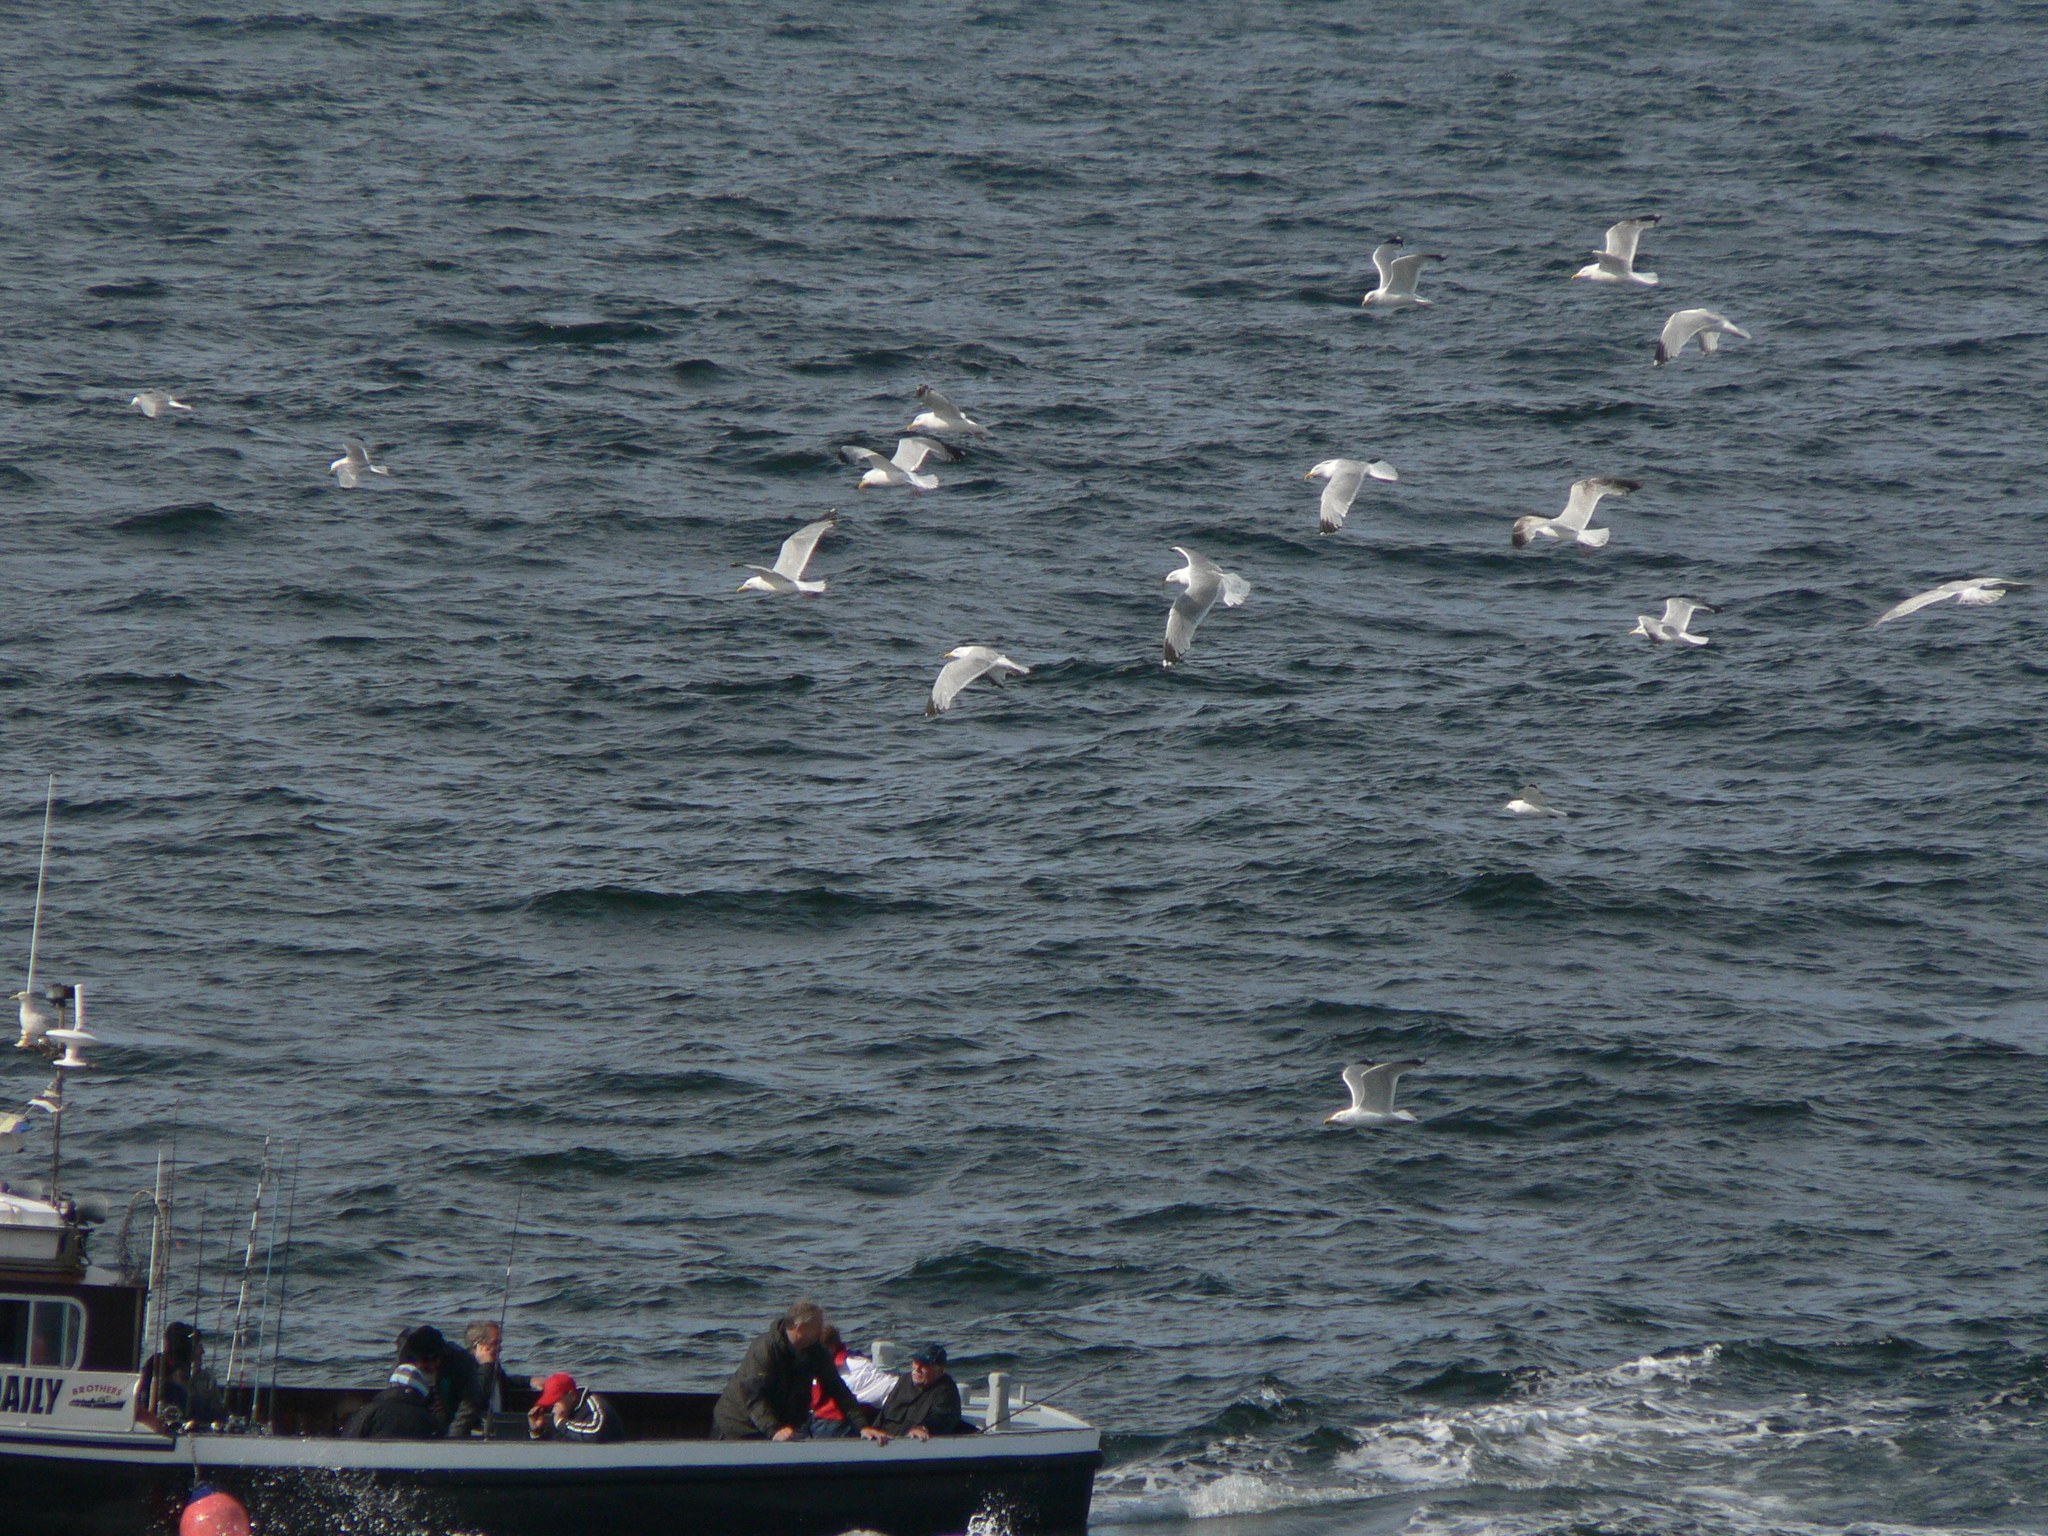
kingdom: Animalia
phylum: Chordata
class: Aves
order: Charadriiformes
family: Laridae
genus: Larus
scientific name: Larus argentatus
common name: Herring gull
